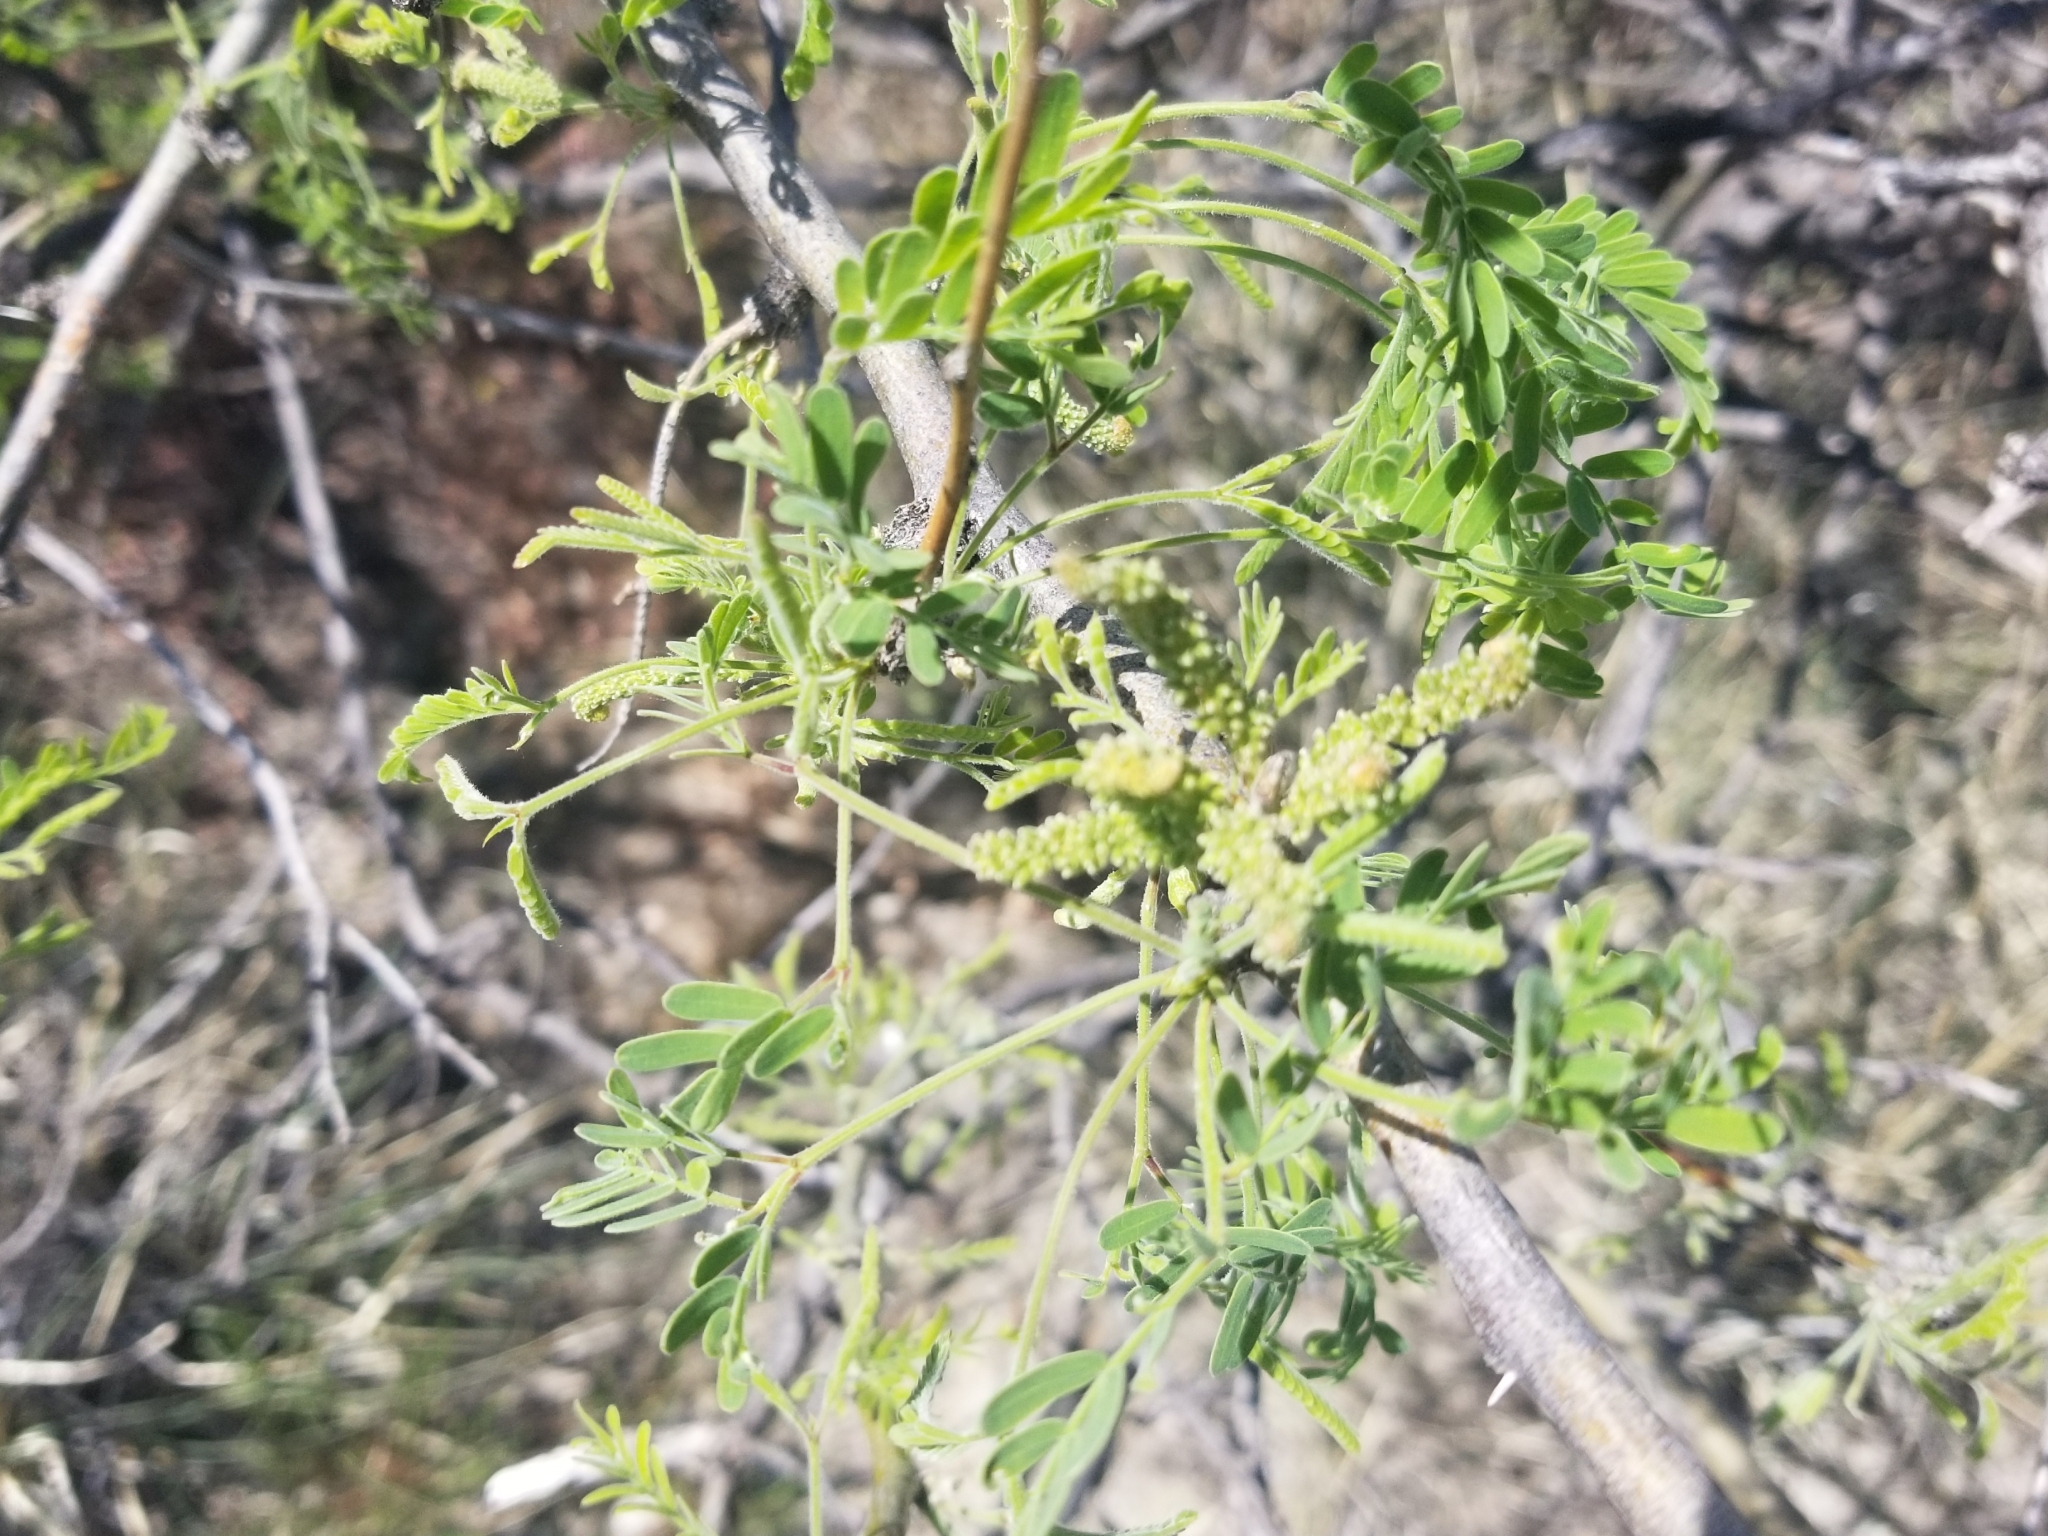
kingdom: Plantae
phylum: Tracheophyta
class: Magnoliopsida
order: Fabales
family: Fabaceae
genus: Prosopis
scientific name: Prosopis velutina
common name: Velvet mesquite
